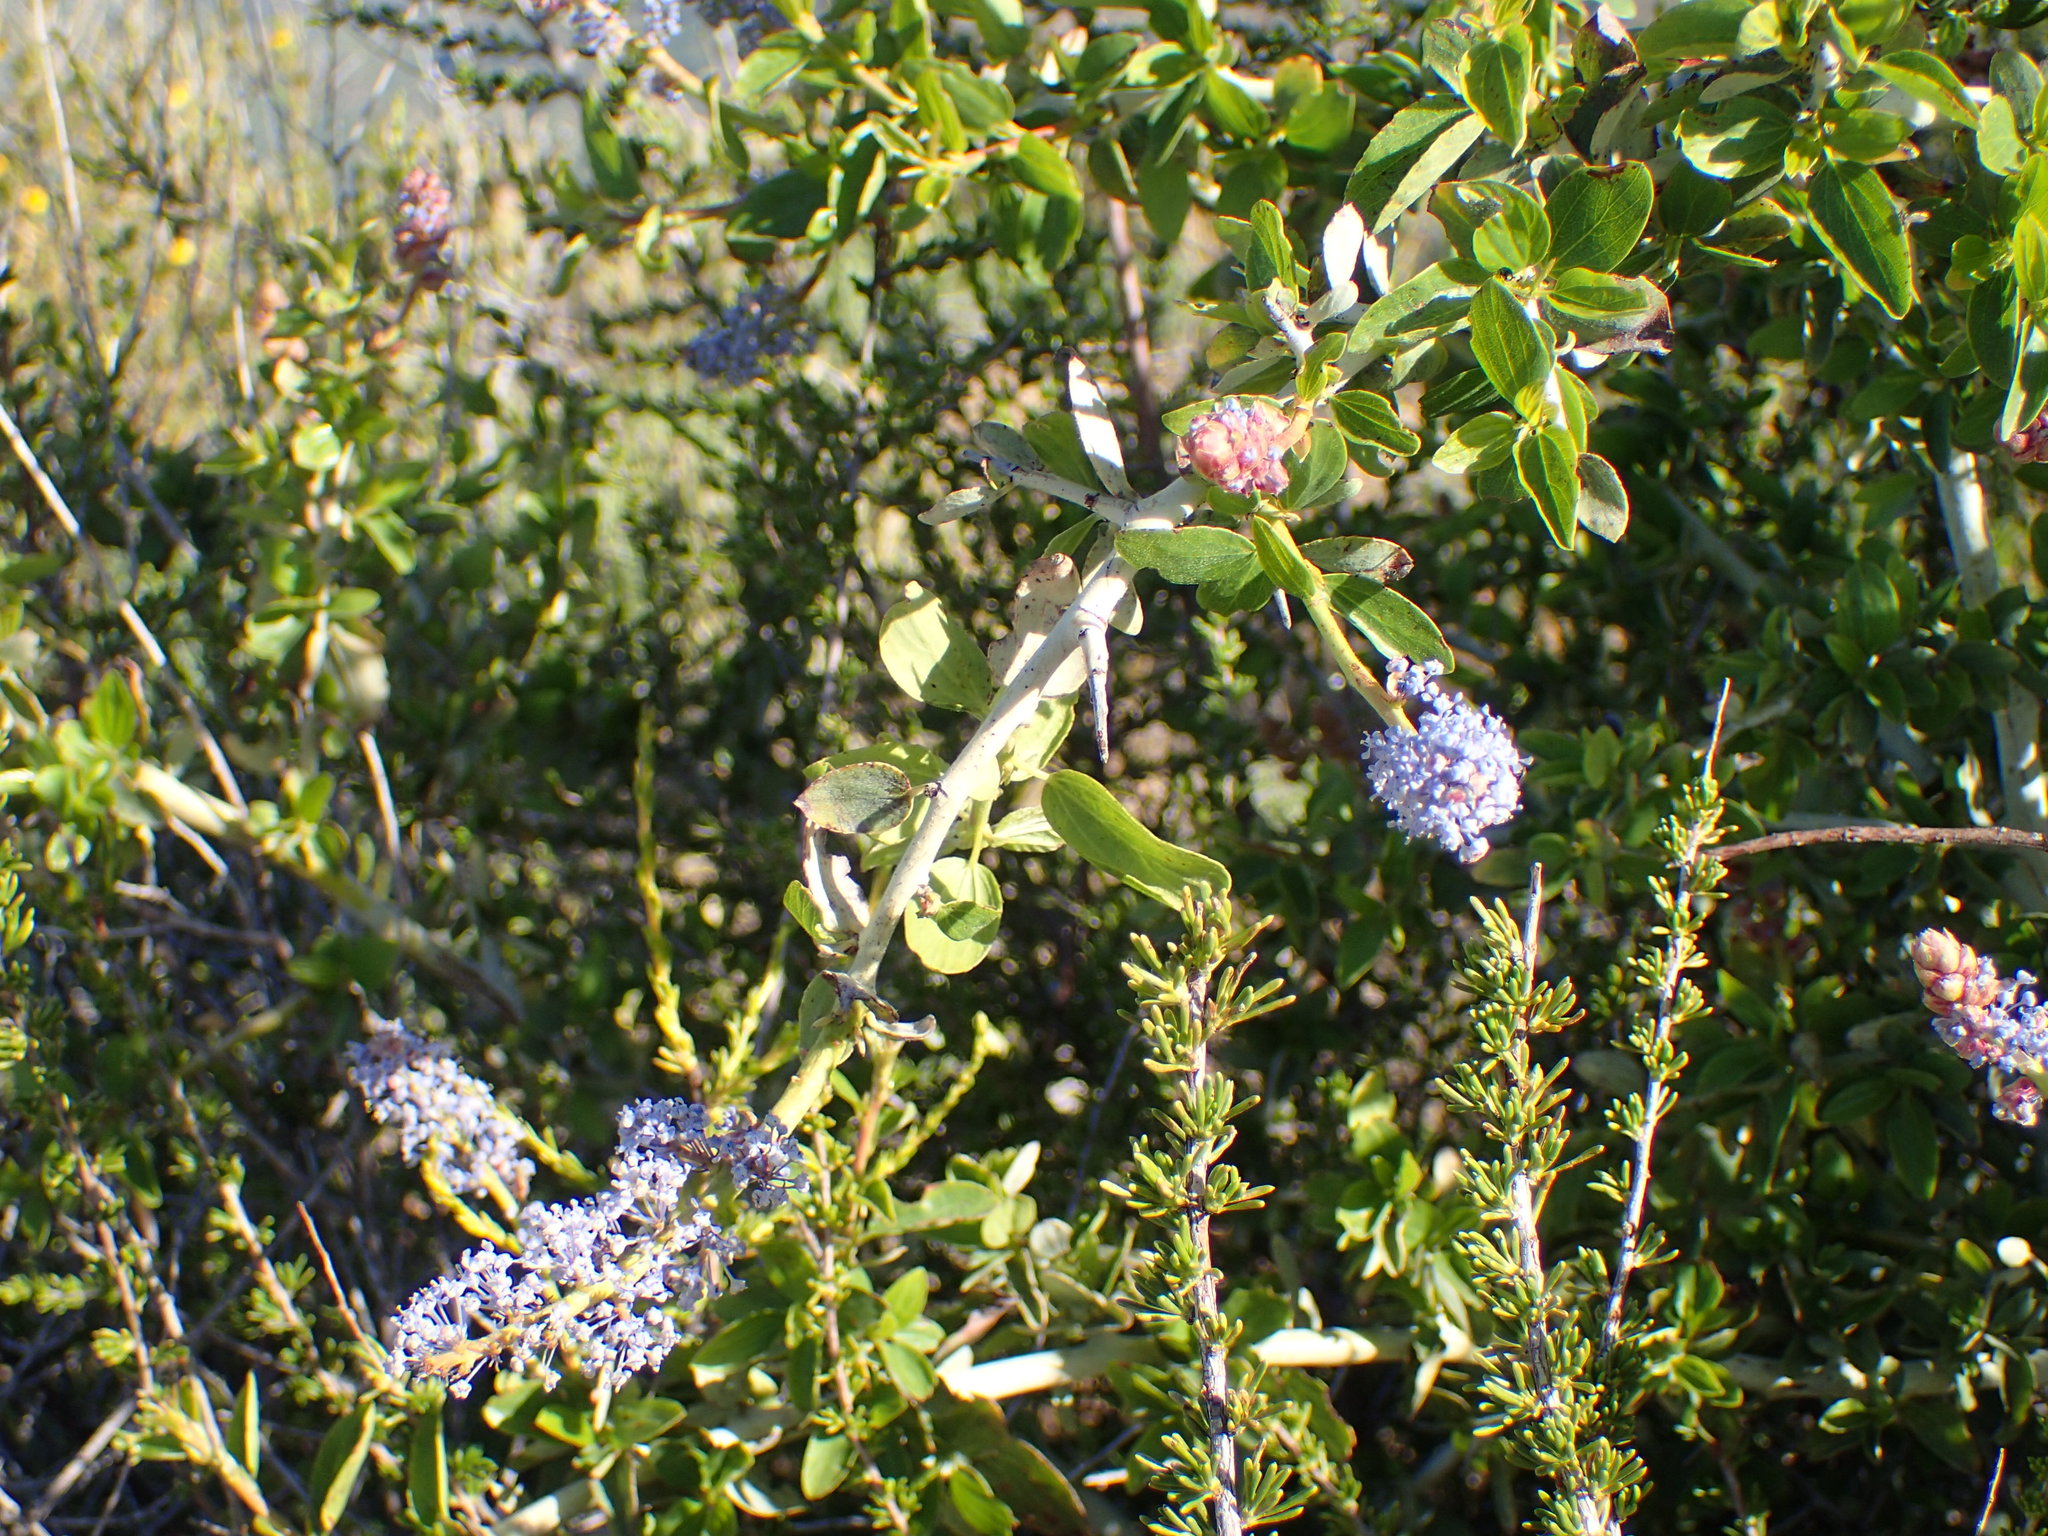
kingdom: Plantae
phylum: Tracheophyta
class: Magnoliopsida
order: Rosales
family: Rhamnaceae
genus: Ceanothus
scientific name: Ceanothus leucodermis
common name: Chaparral whitethorn
